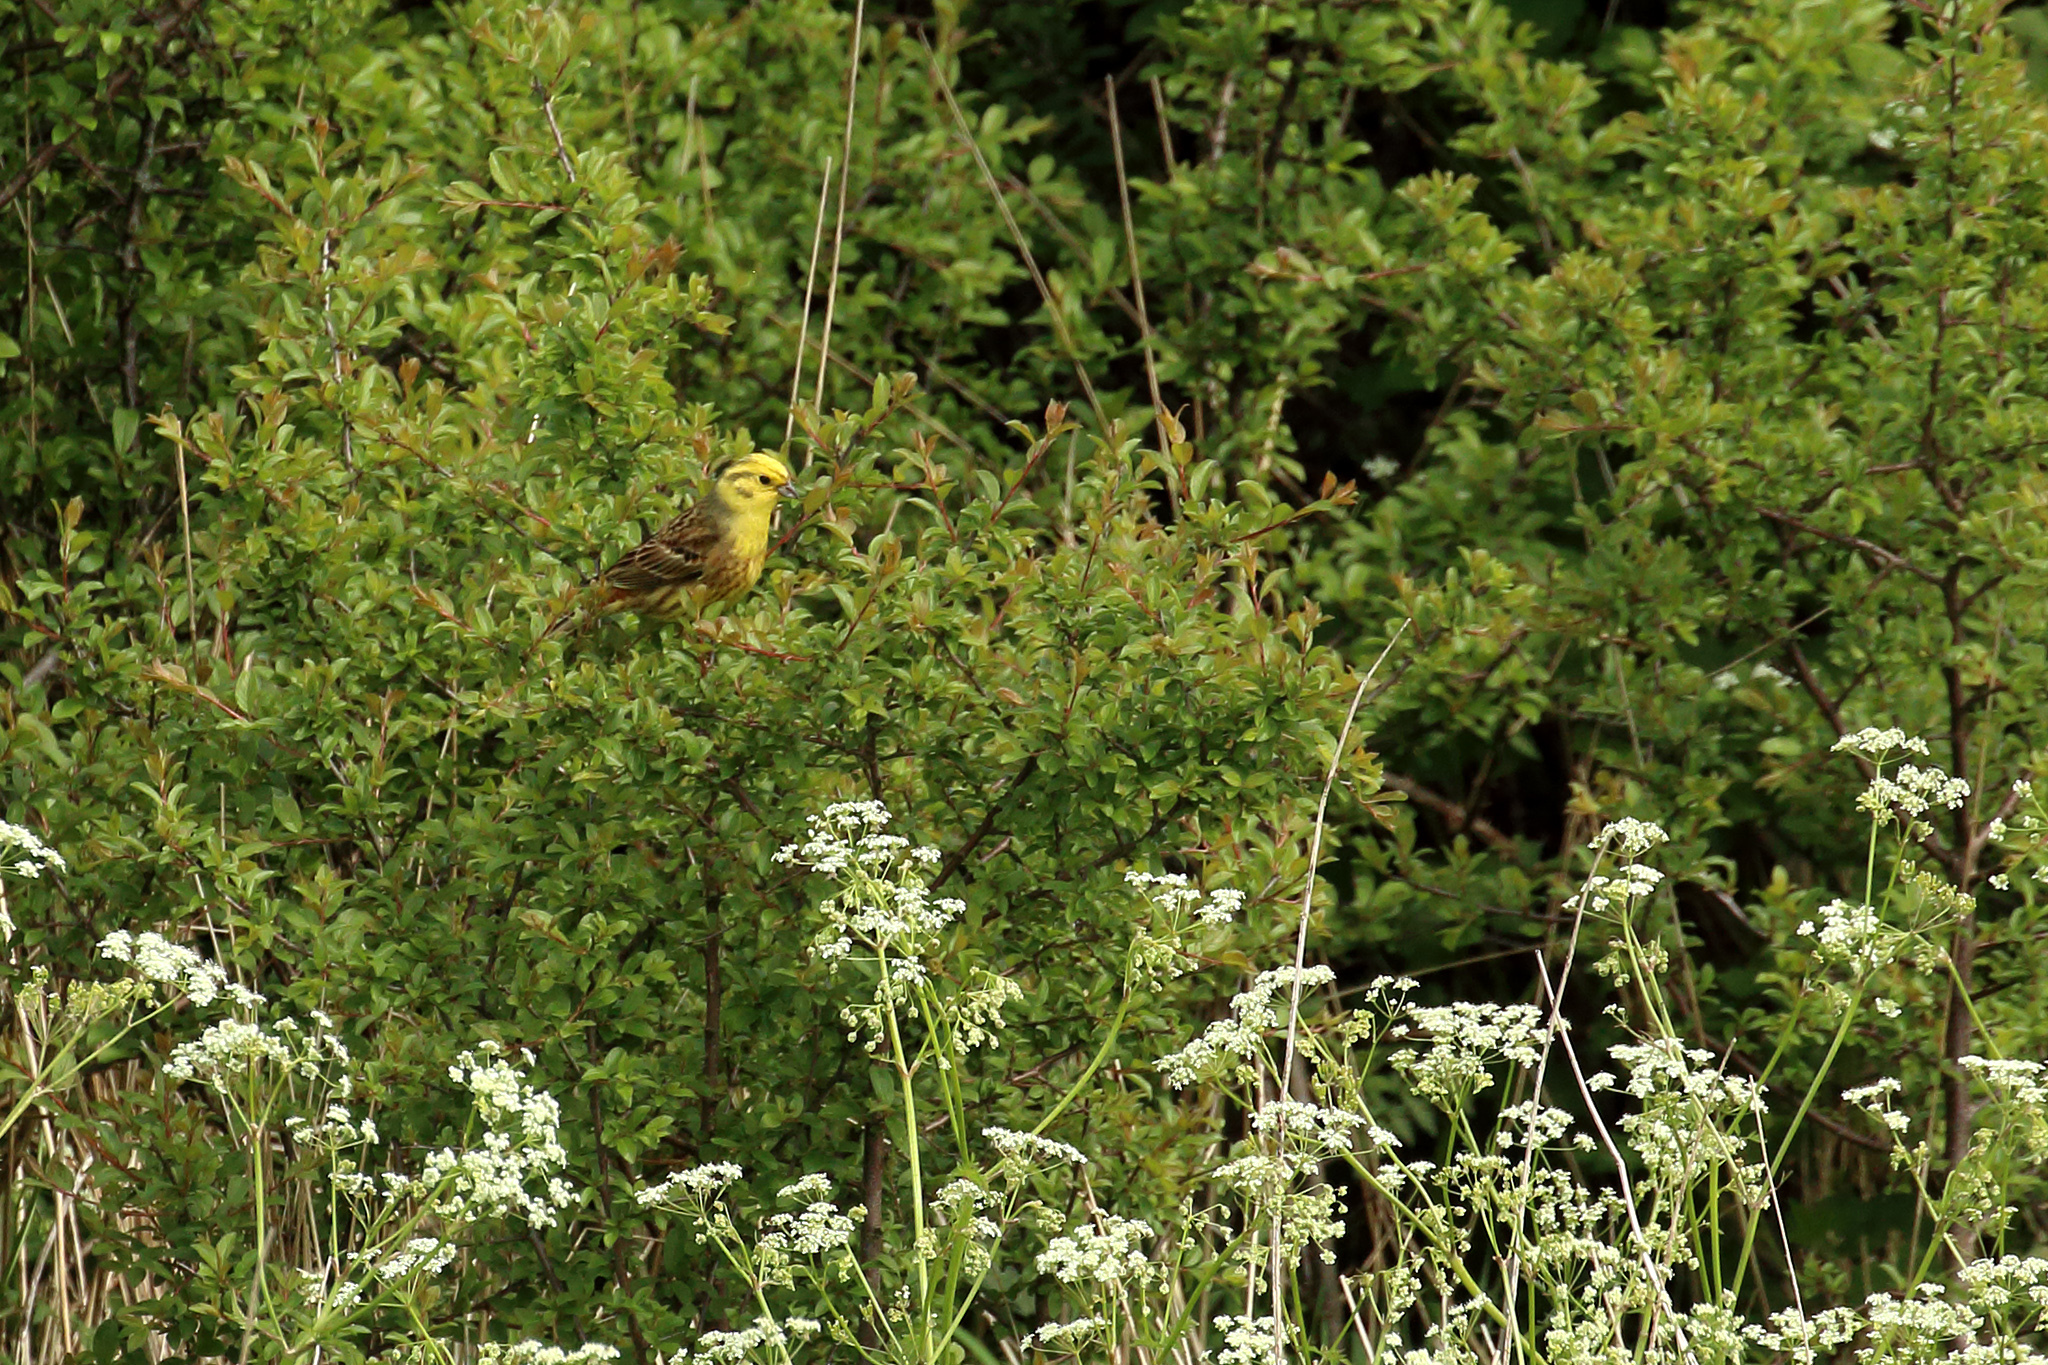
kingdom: Animalia
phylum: Chordata
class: Aves
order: Passeriformes
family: Emberizidae
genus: Emberiza
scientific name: Emberiza citrinella
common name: Yellowhammer
